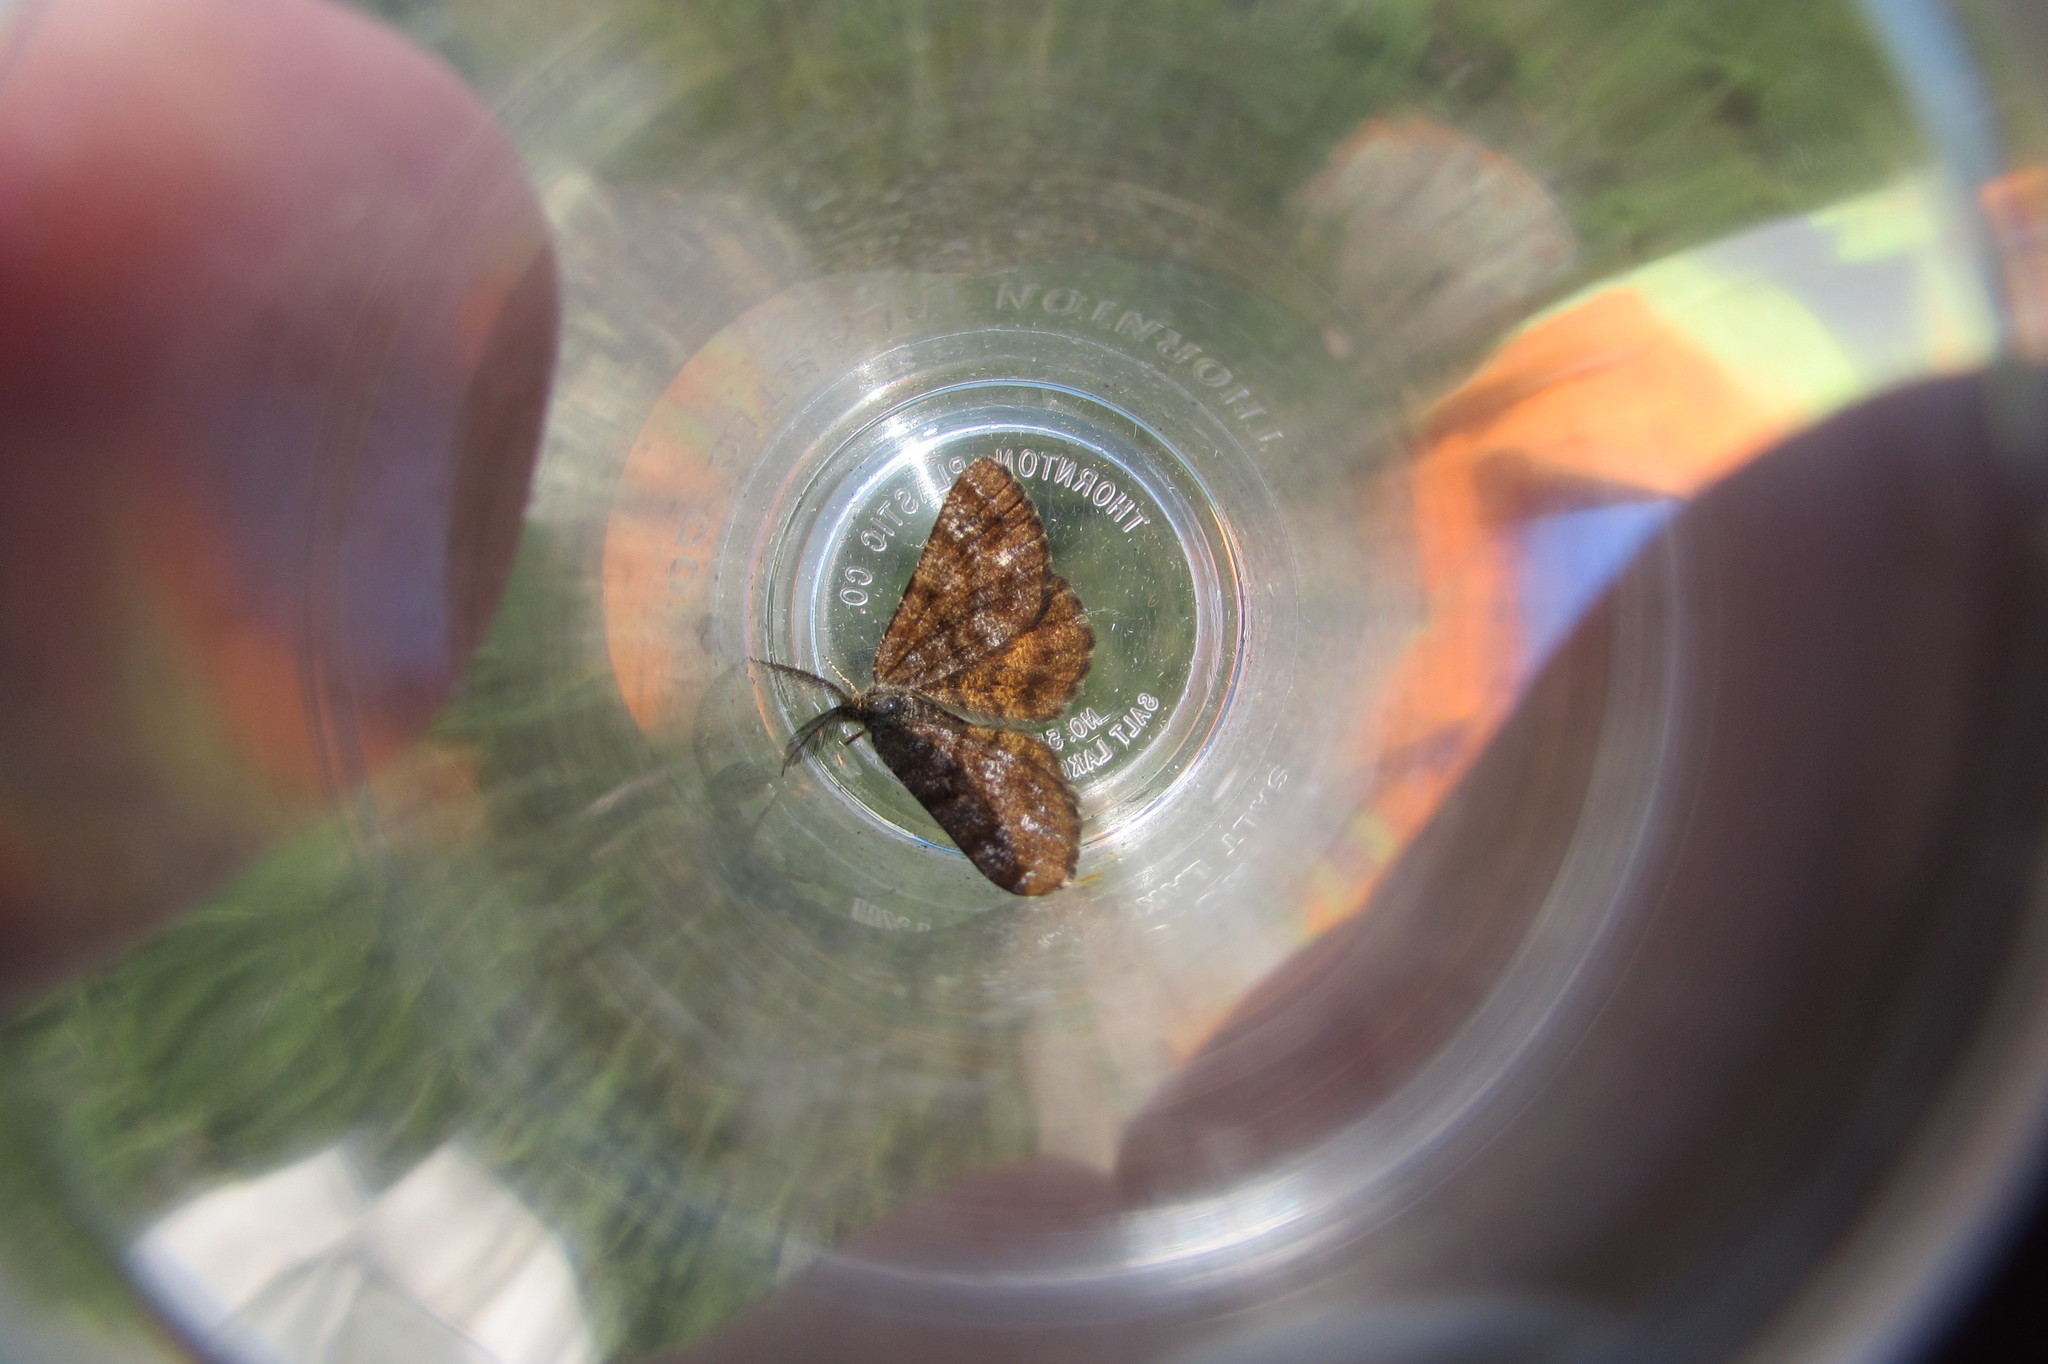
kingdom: Animalia
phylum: Arthropoda
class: Insecta
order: Lepidoptera
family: Geometridae
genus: Ematurga
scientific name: Ematurga amitaria
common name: Cranberry spanworm moth
